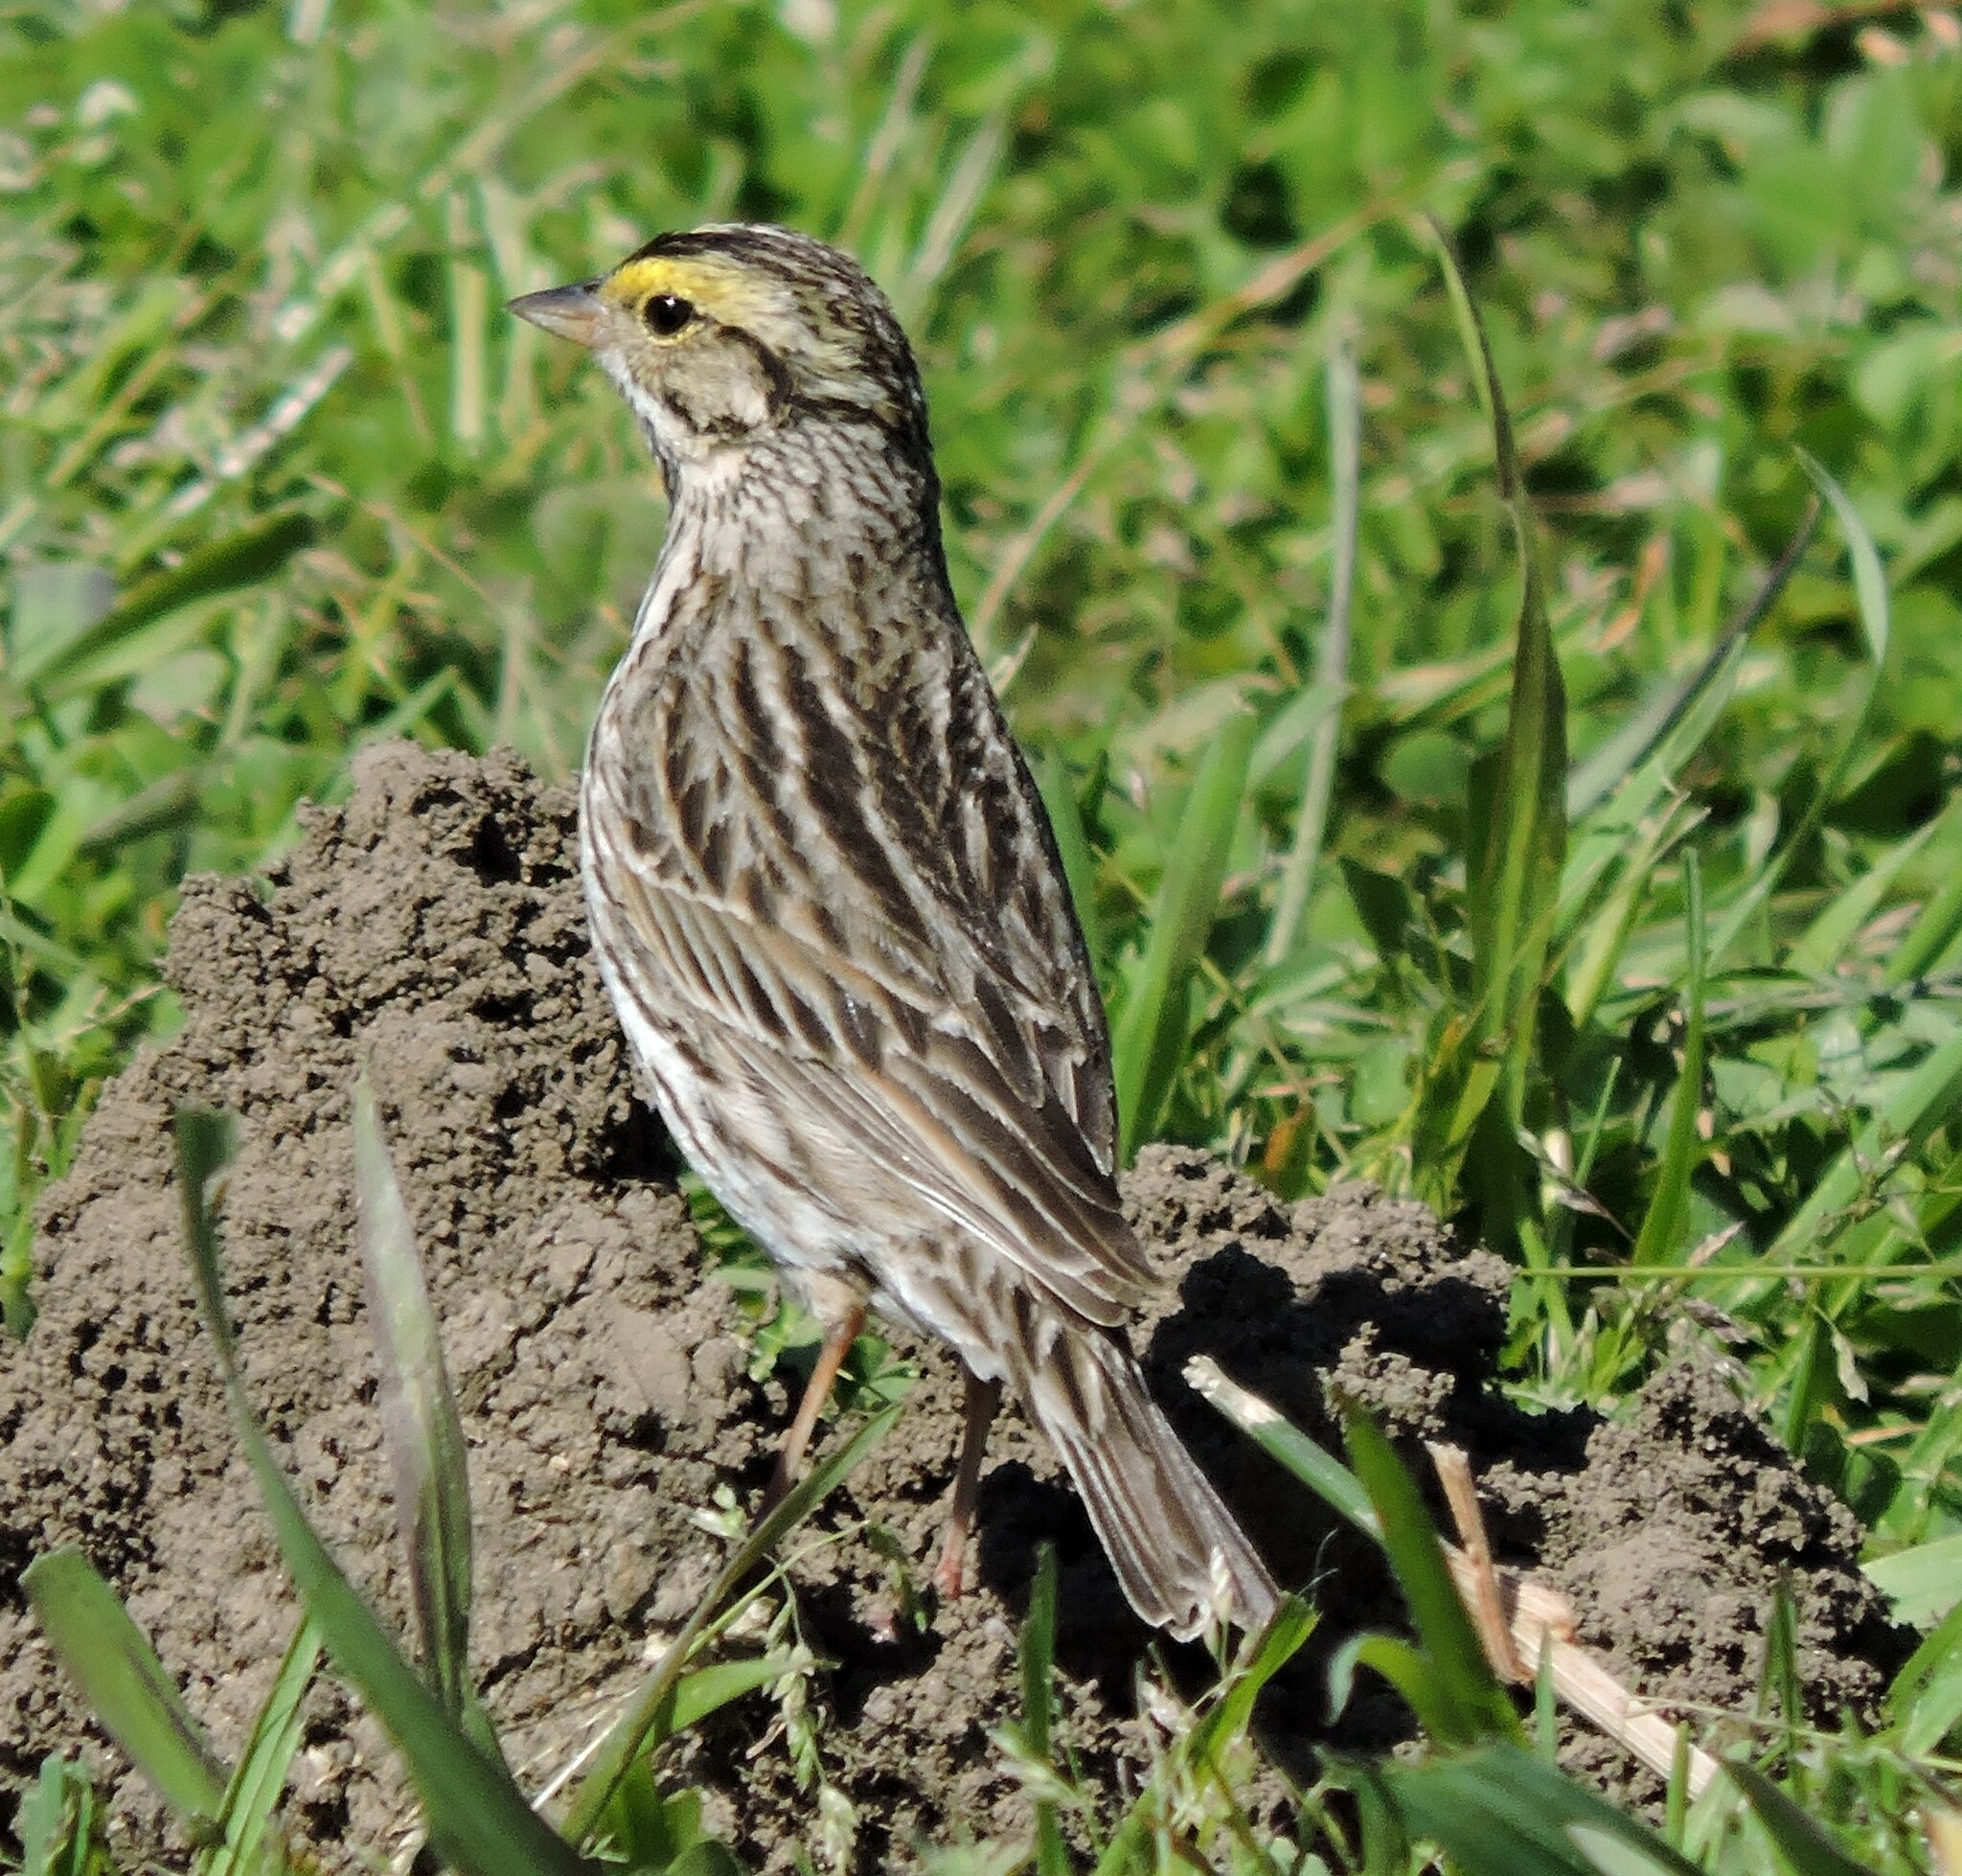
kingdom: Animalia
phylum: Chordata
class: Aves
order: Passeriformes
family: Passerellidae
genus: Passerculus
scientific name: Passerculus sandwichensis
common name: Savannah sparrow
